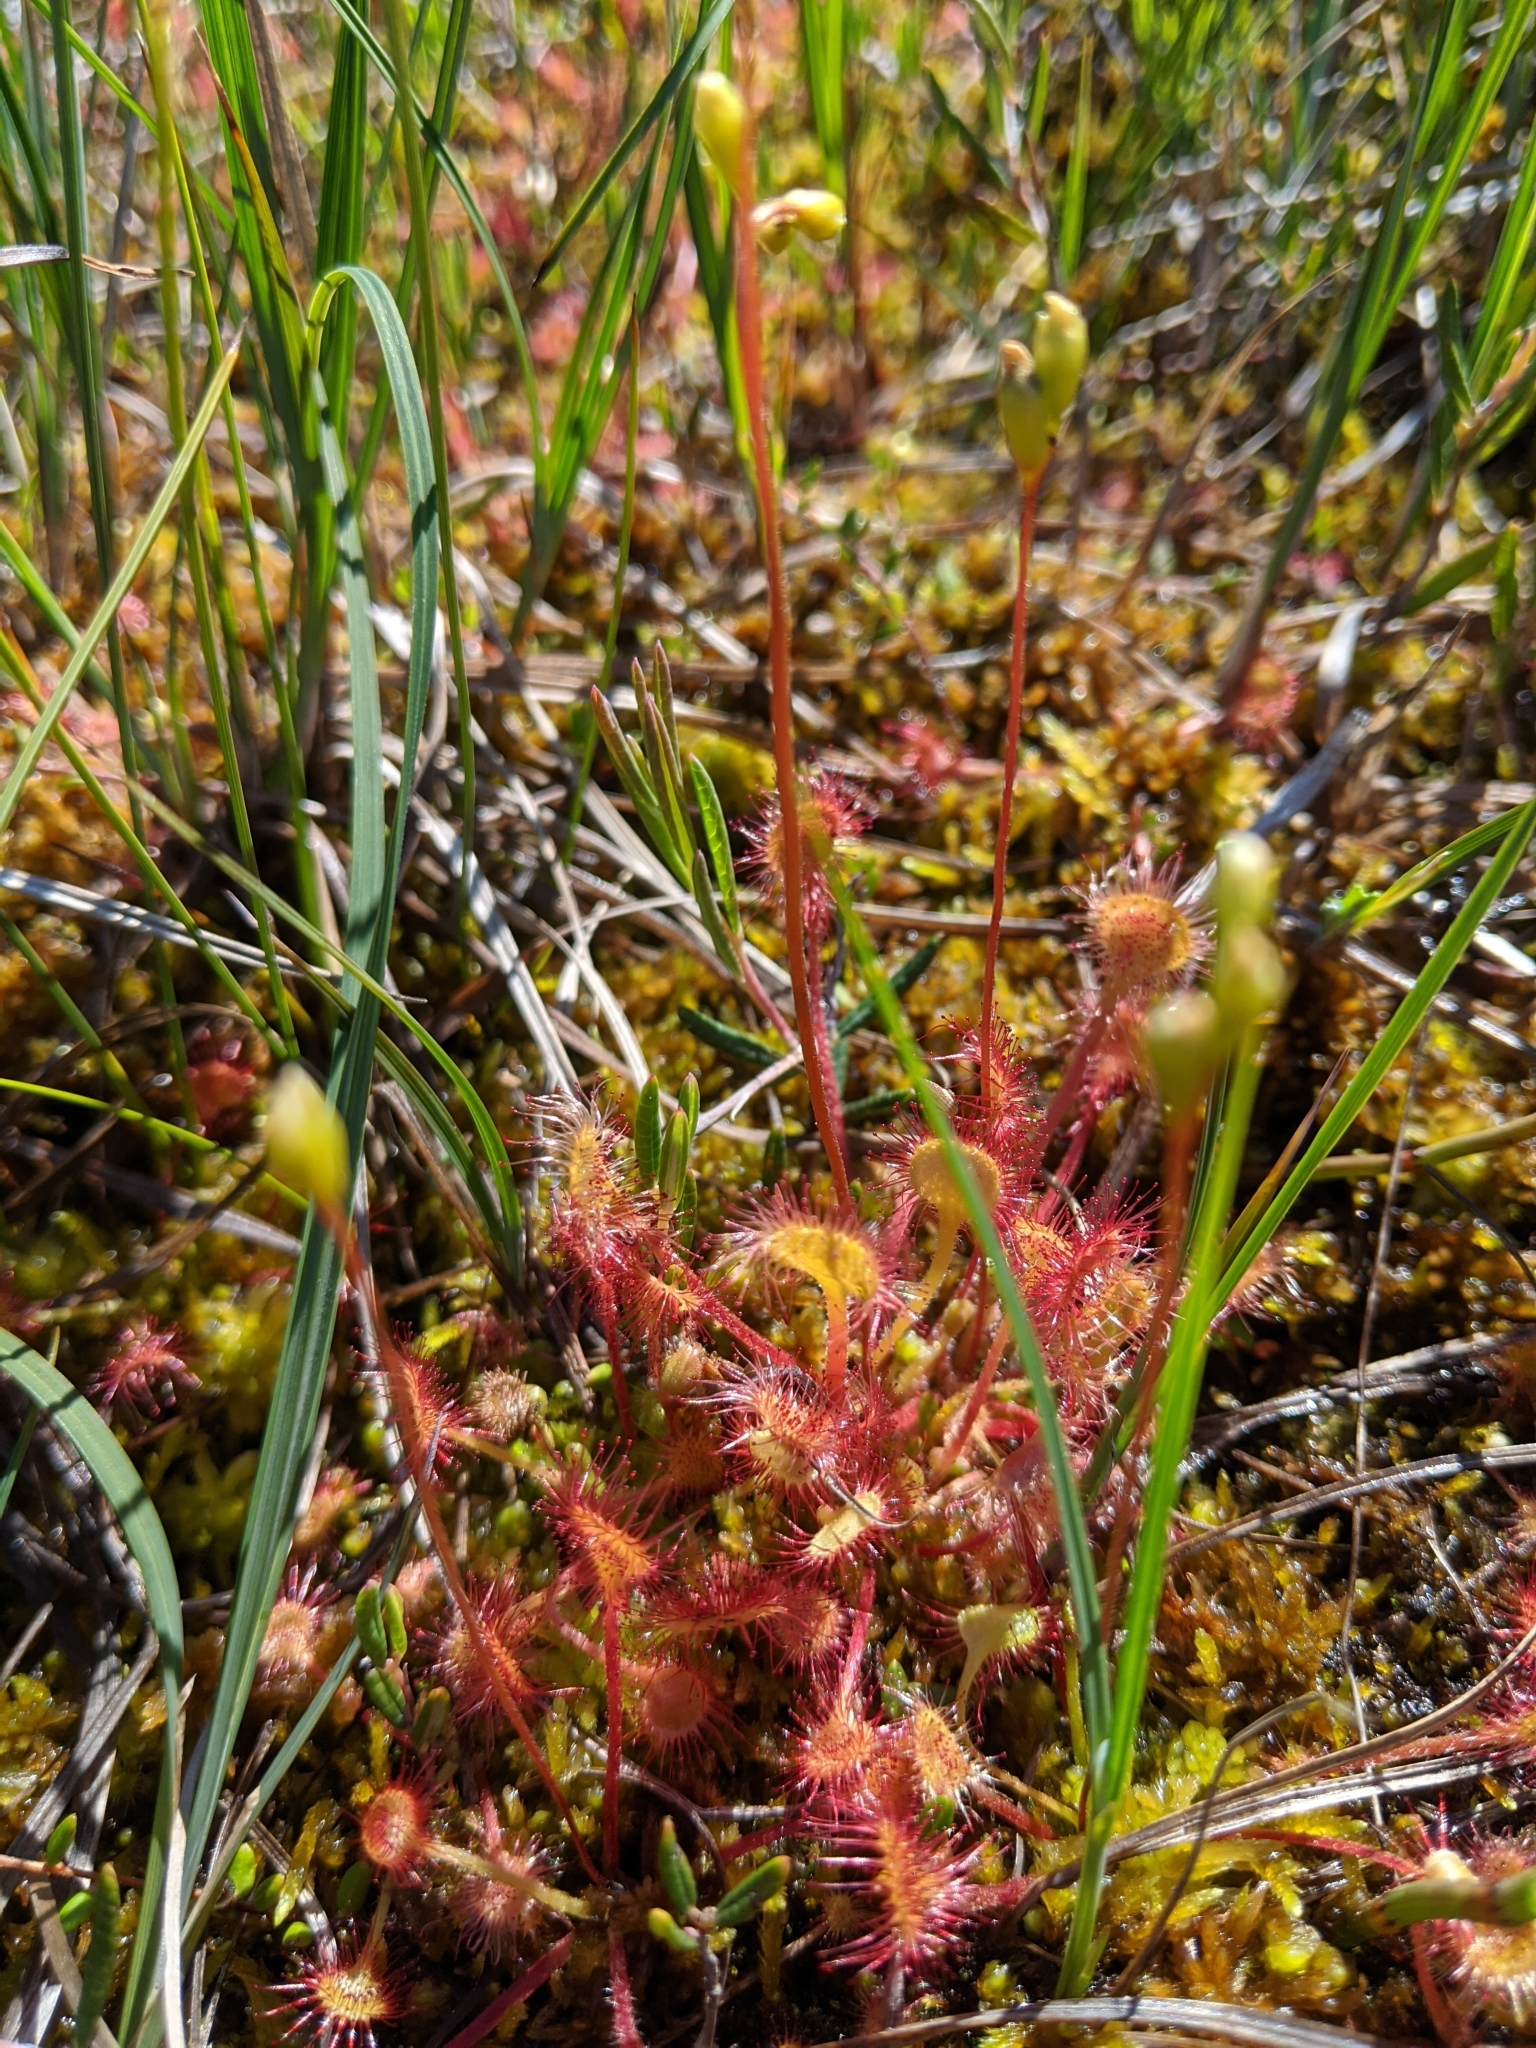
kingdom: Plantae
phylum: Tracheophyta
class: Magnoliopsida
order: Caryophyllales
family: Droseraceae
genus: Drosera
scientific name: Drosera rotundifolia
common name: Round-leaved sundew
